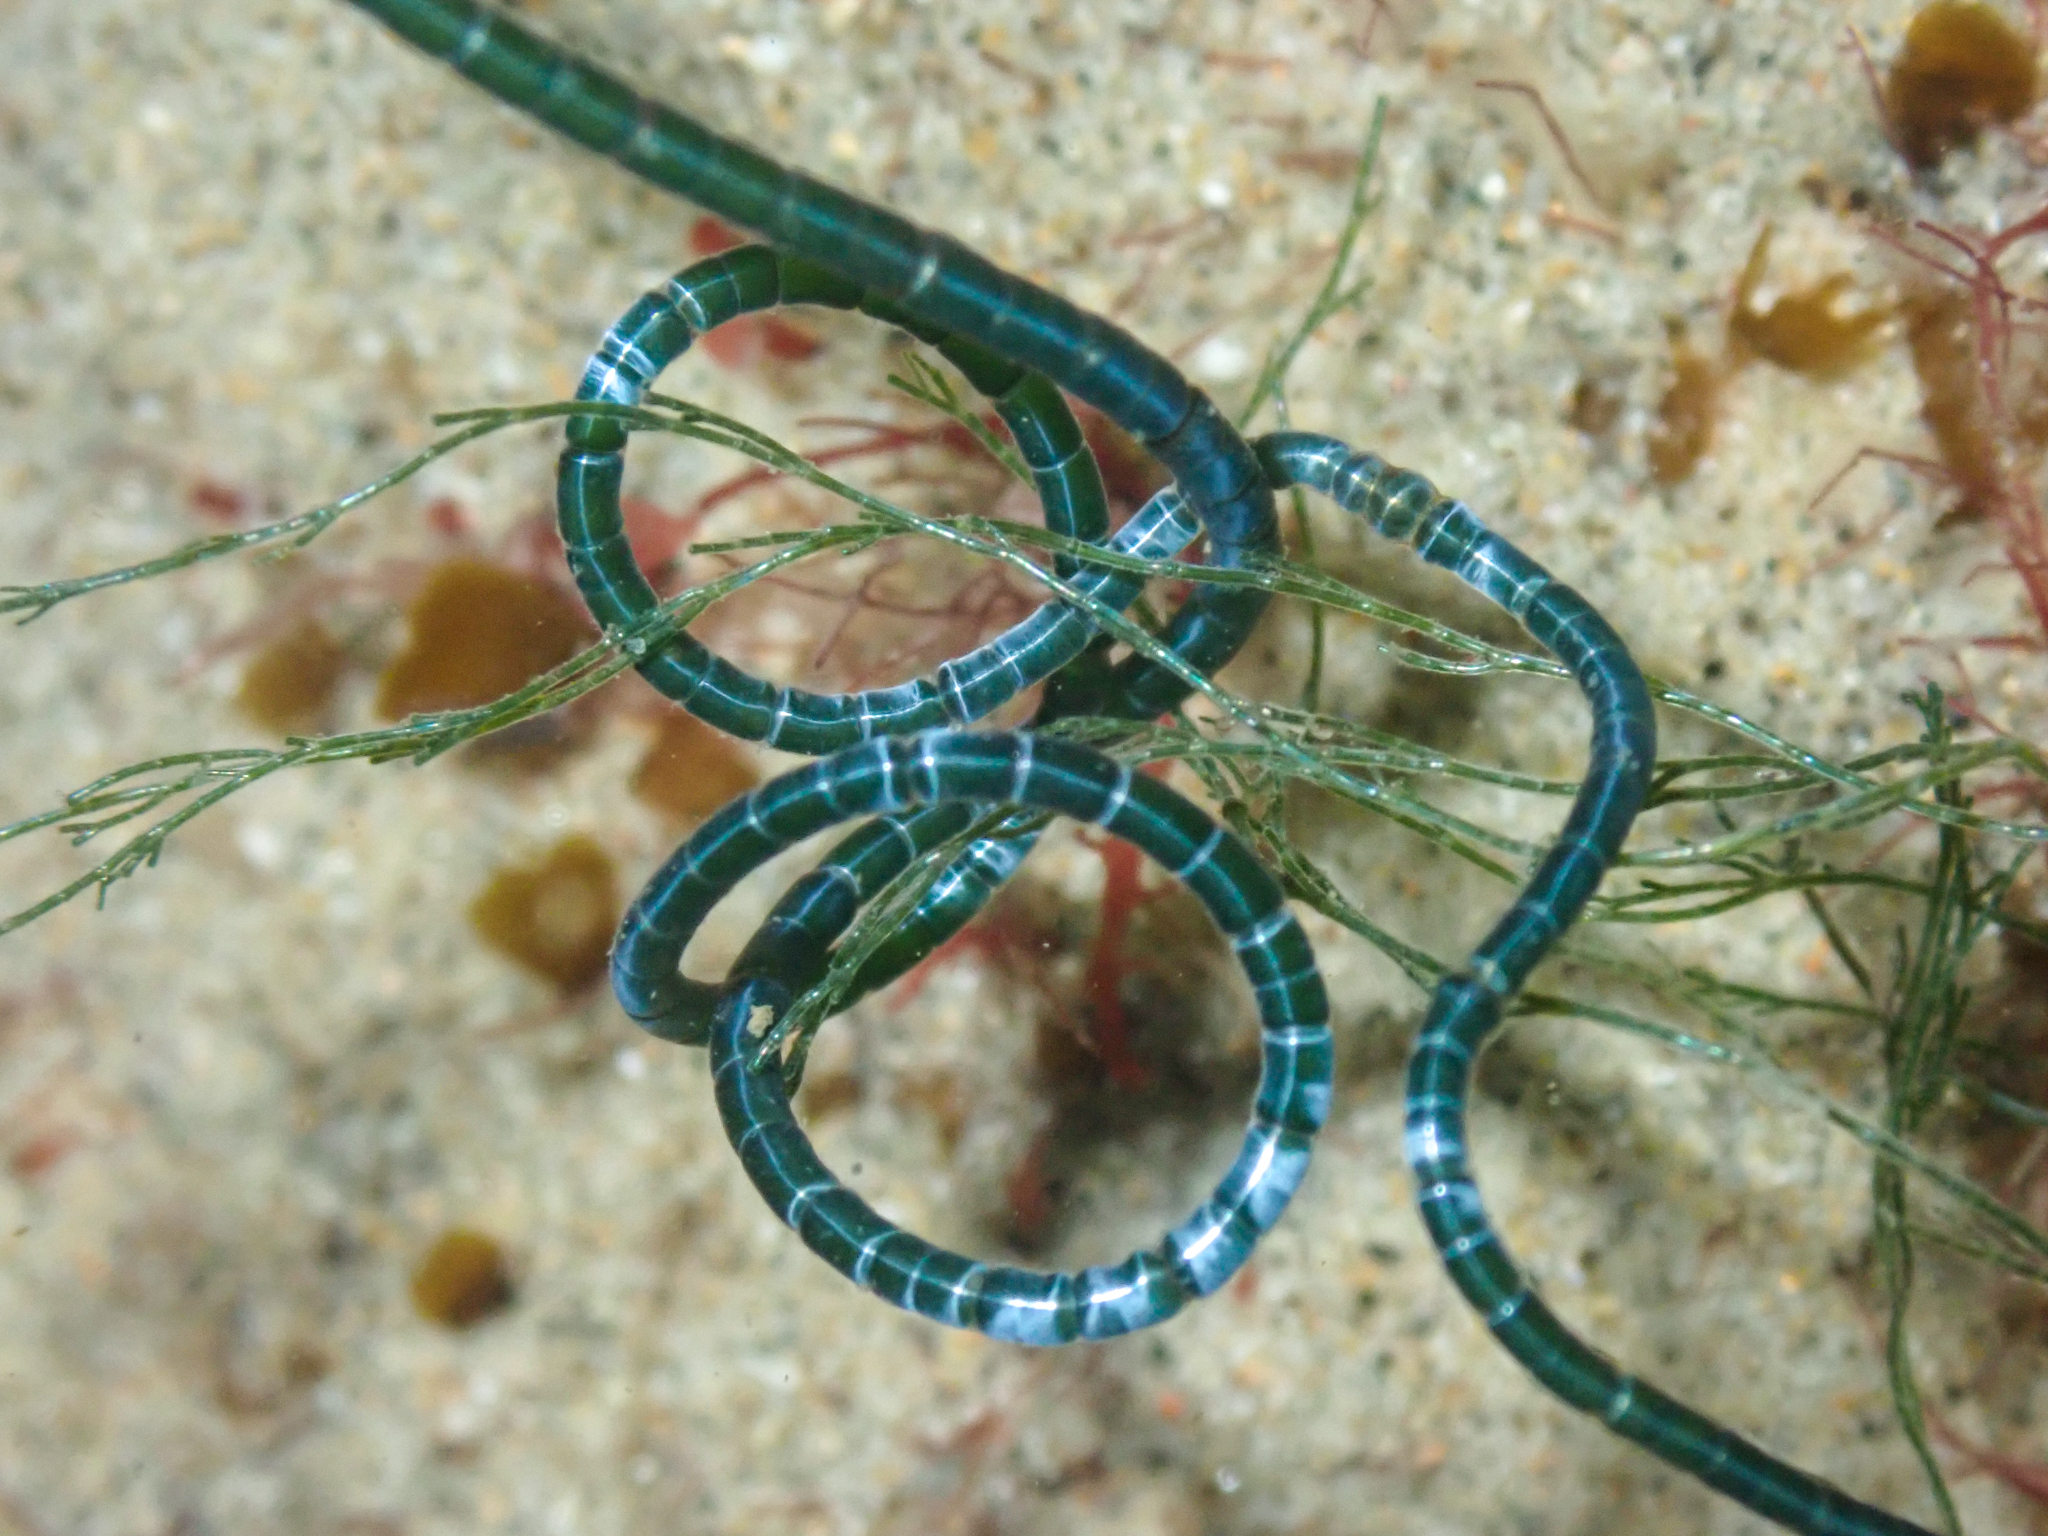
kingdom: Plantae
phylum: Chlorophyta
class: Ulvophyceae
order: Cladophorales
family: Cladophoraceae
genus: Chaetomorpha
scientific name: Chaetomorpha spiralis
